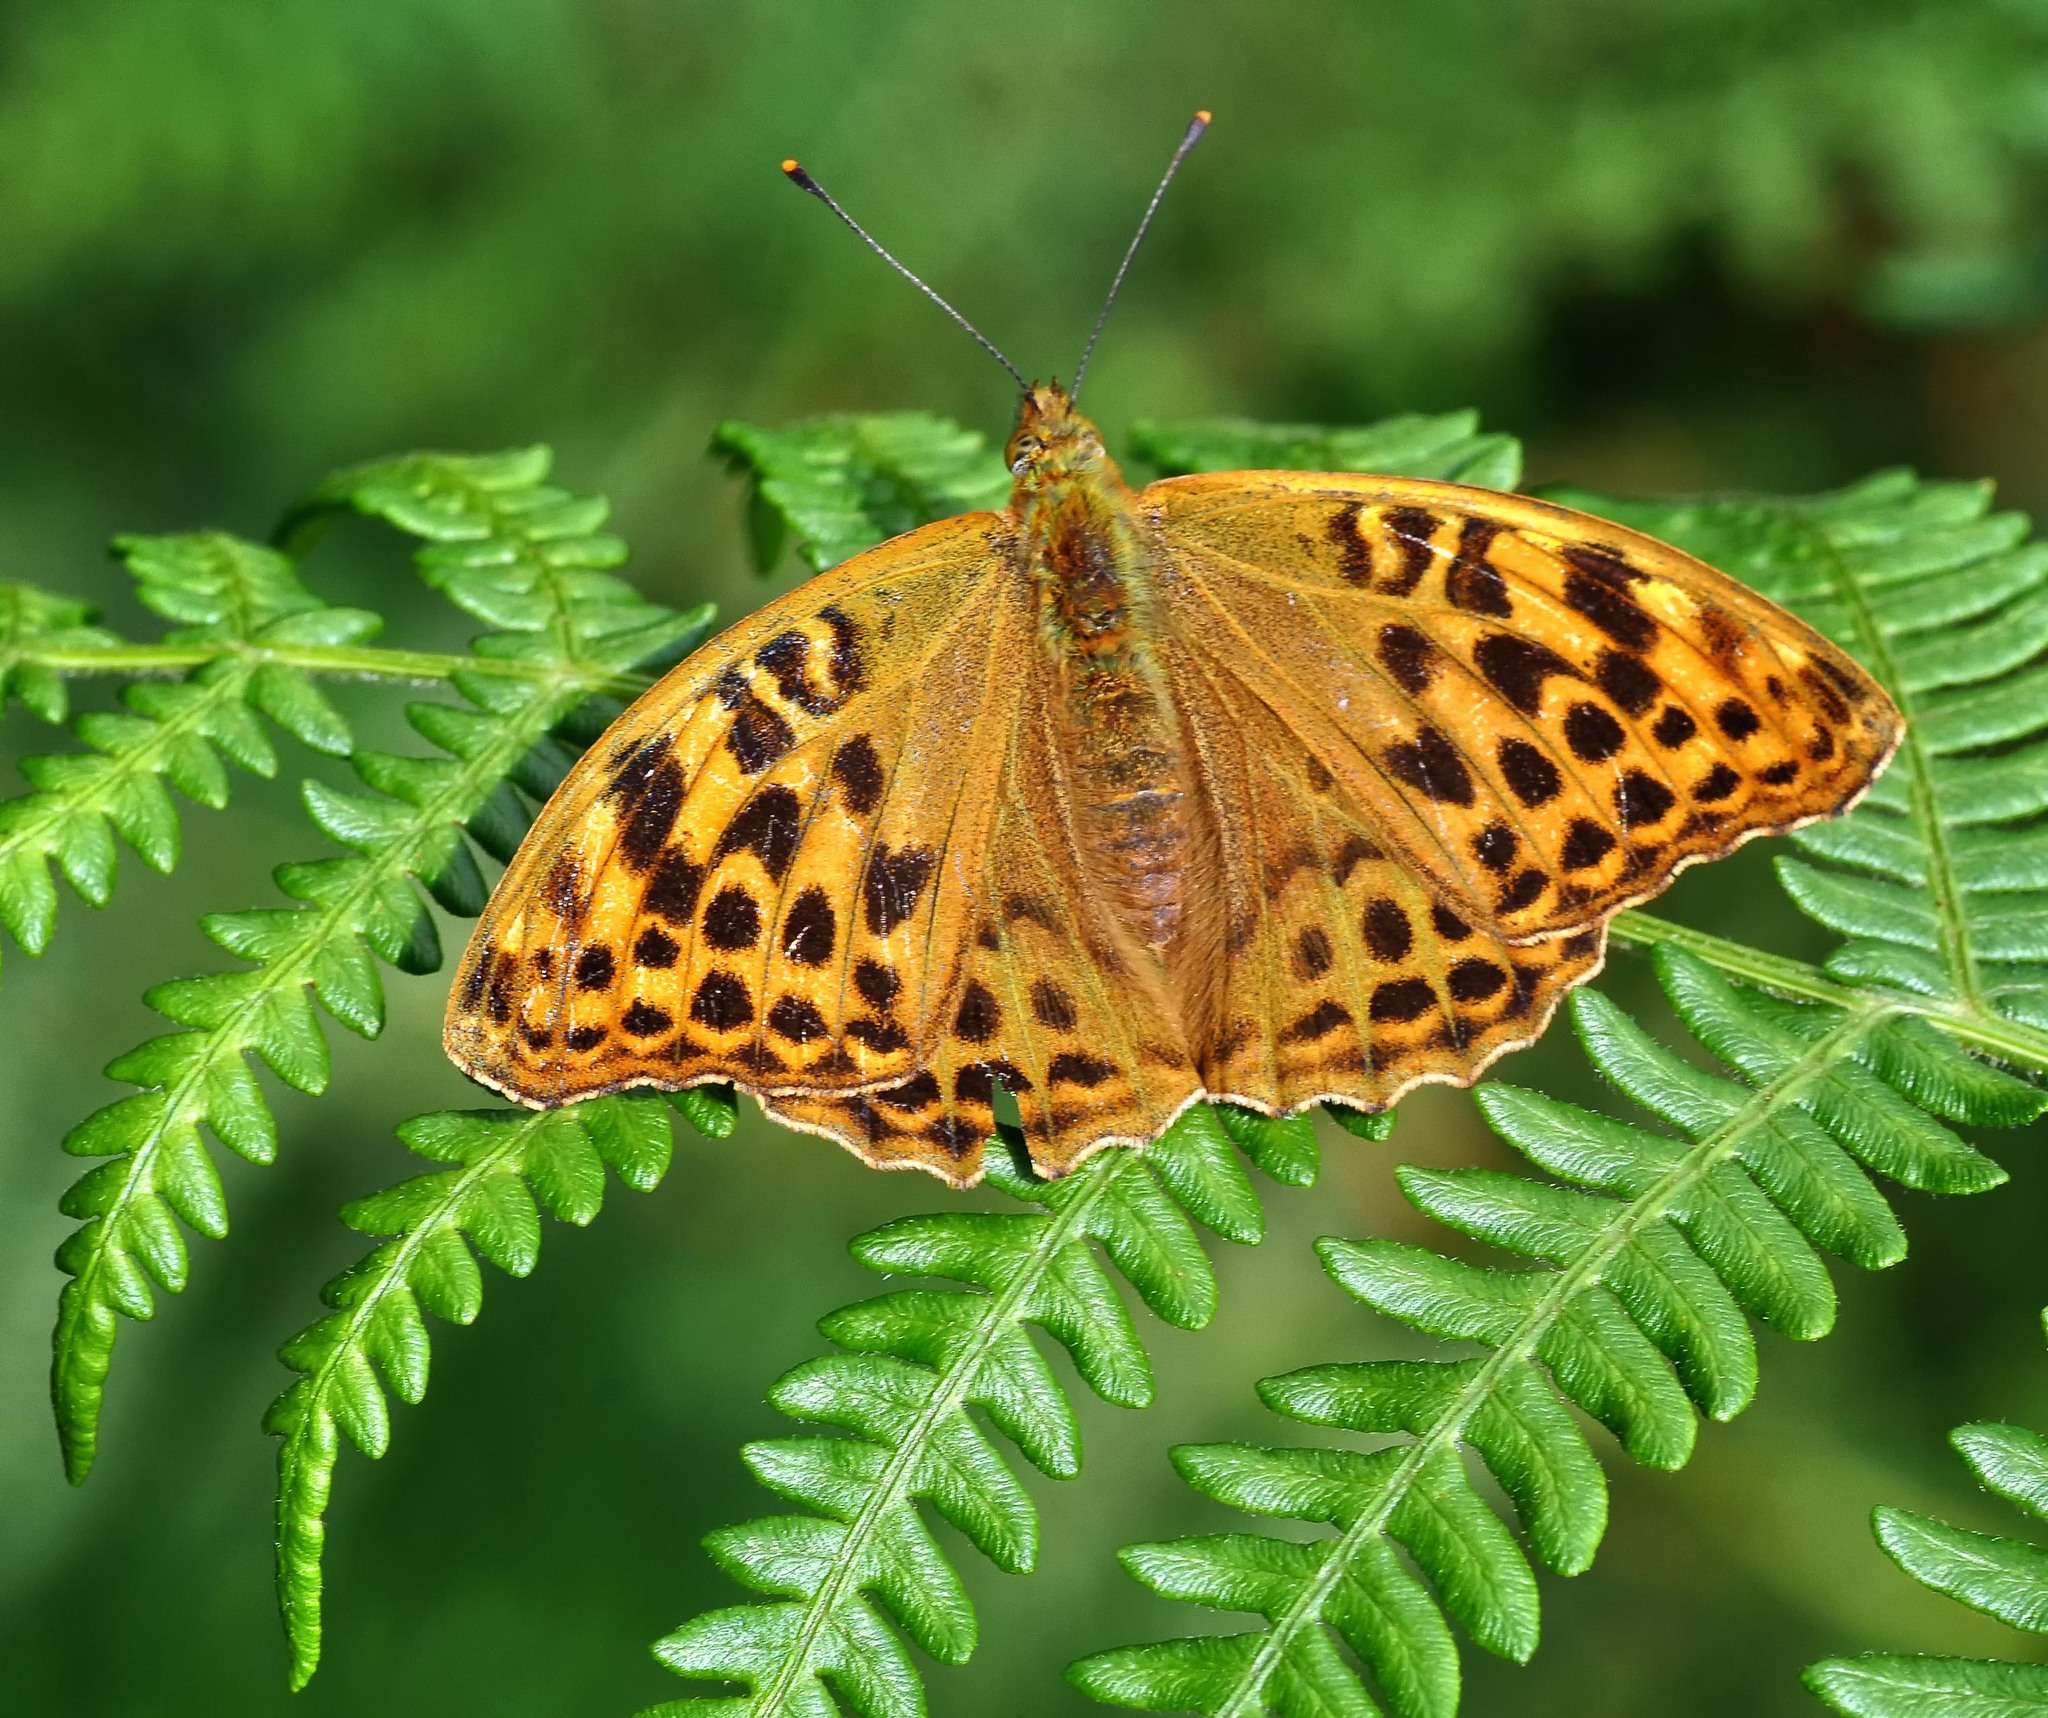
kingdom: Animalia
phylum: Arthropoda
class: Insecta
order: Lepidoptera
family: Nymphalidae
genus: Argynnis
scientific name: Argynnis paphia
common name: Silver-washed fritillary
